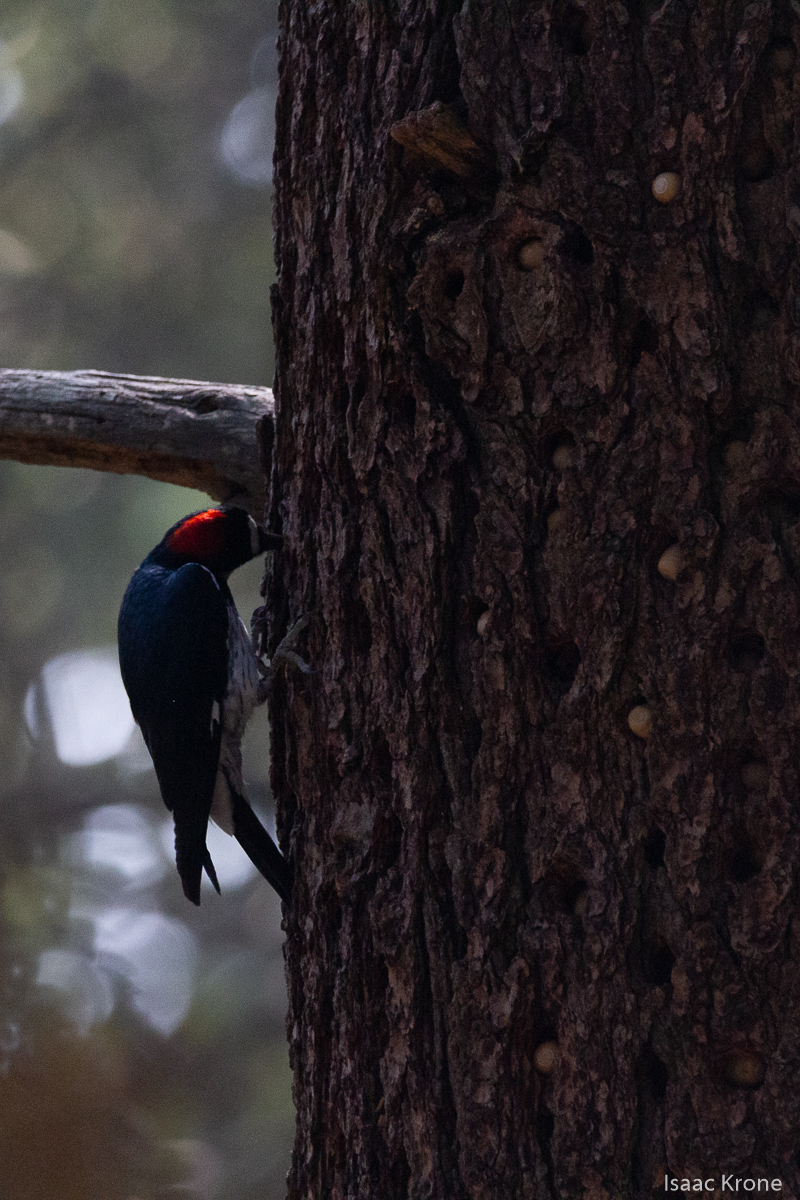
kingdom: Animalia
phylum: Chordata
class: Aves
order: Piciformes
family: Picidae
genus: Melanerpes
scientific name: Melanerpes formicivorus
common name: Acorn woodpecker
